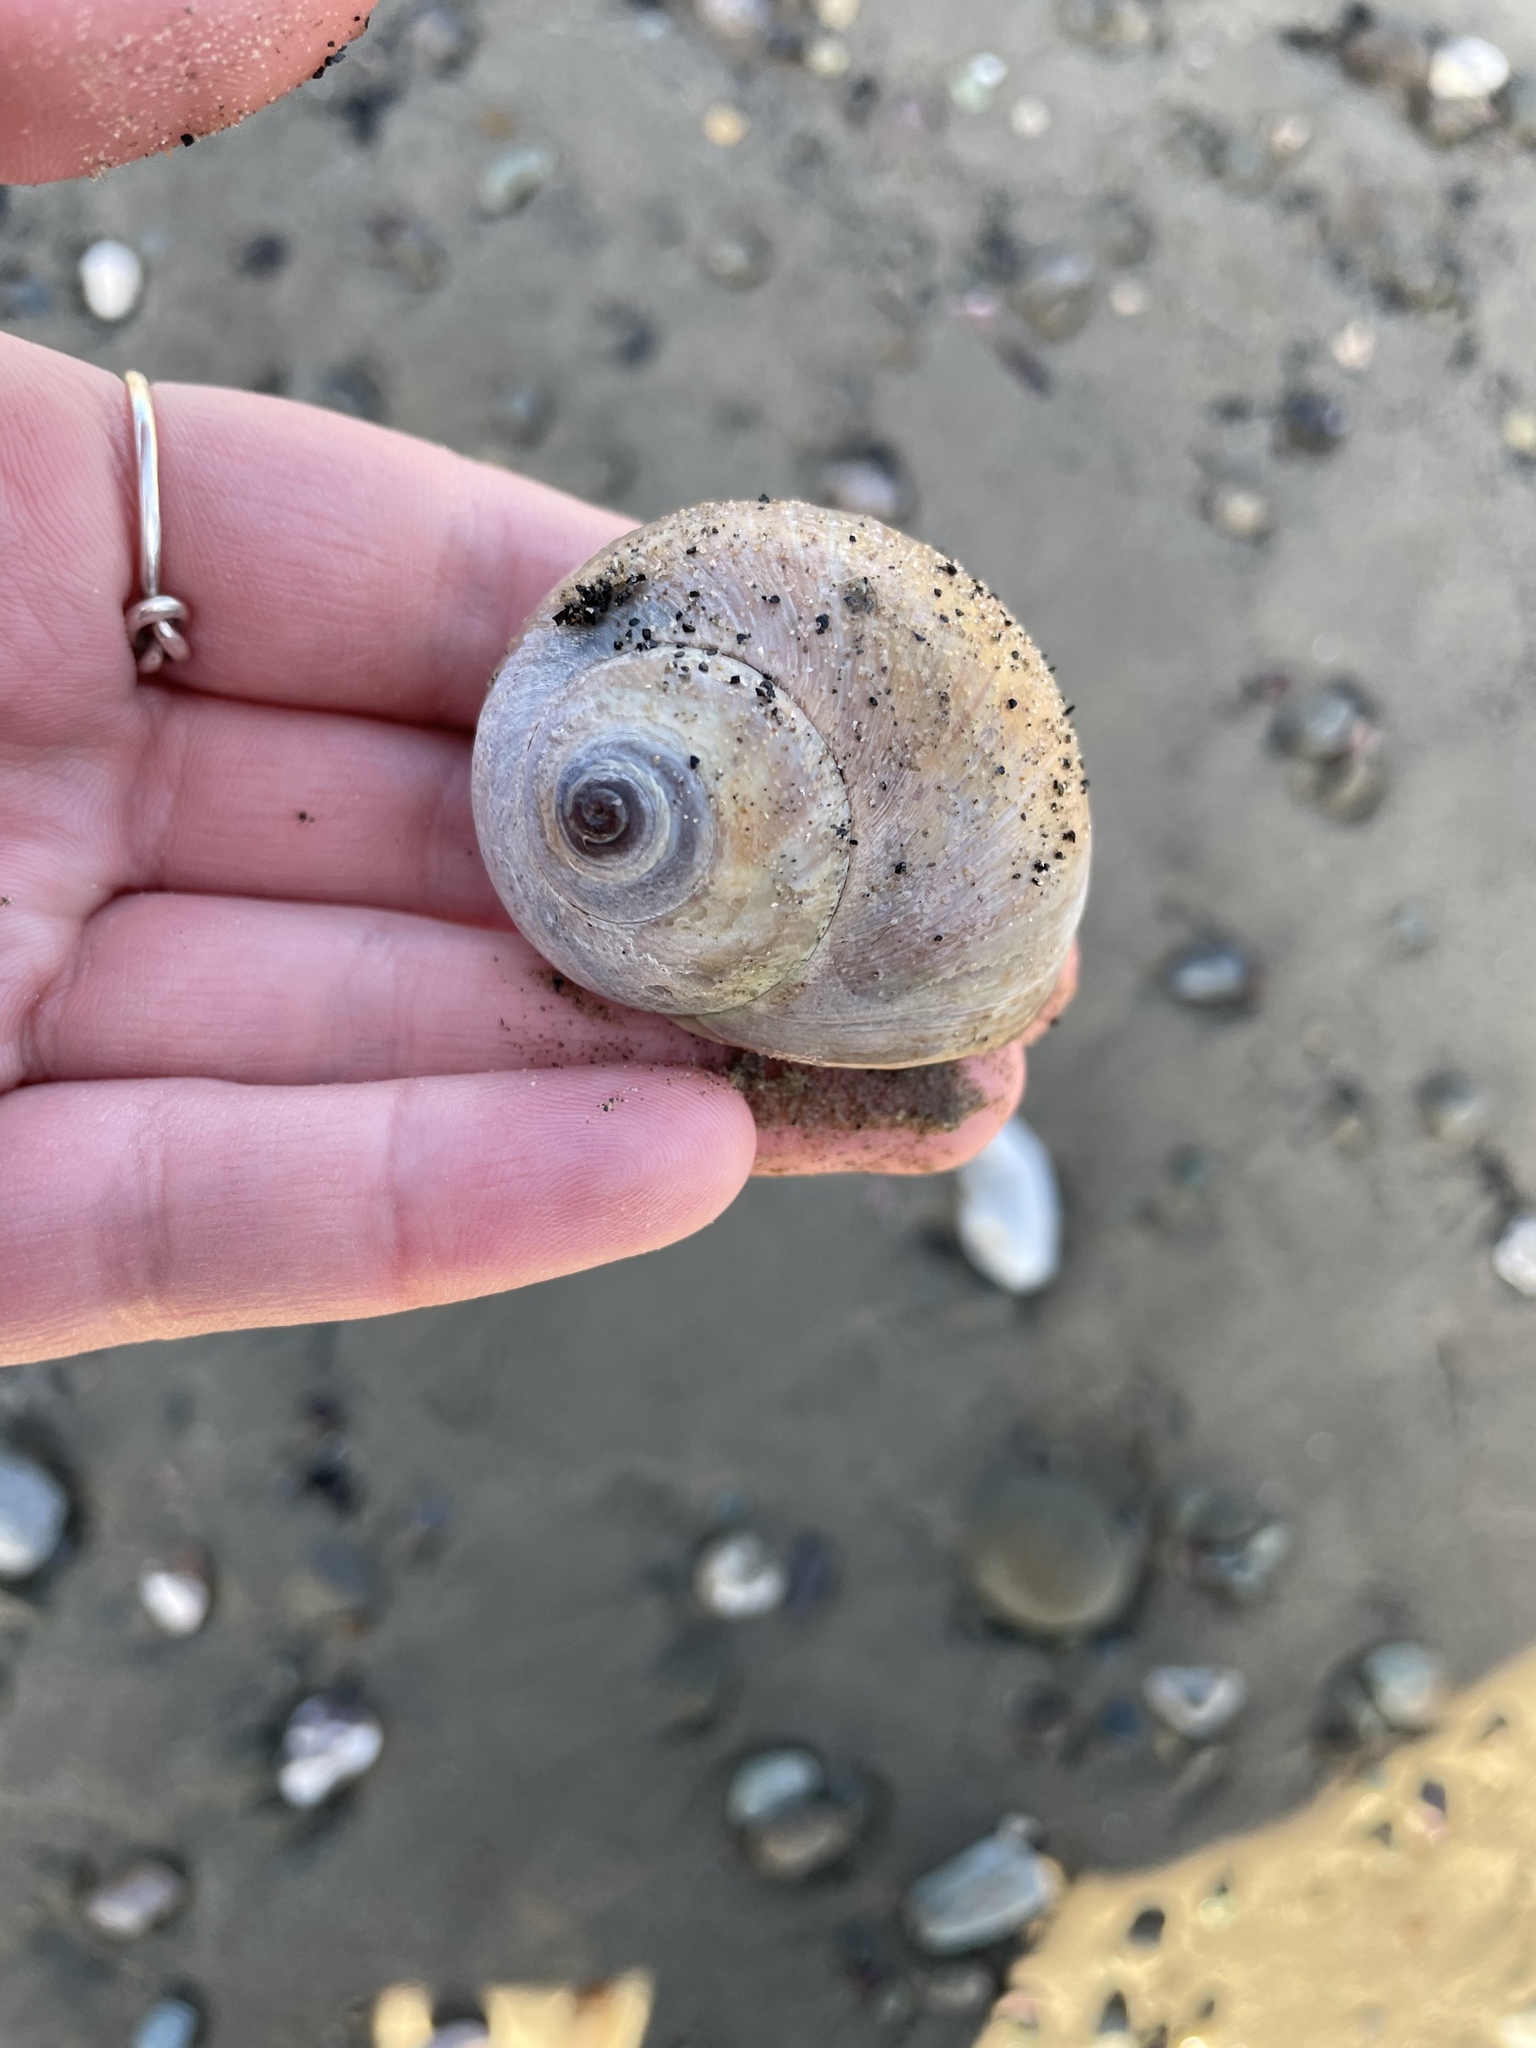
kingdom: Animalia
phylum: Mollusca
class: Gastropoda
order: Littorinimorpha
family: Naticidae
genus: Euspira
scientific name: Euspira heros
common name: Common northern moonsnail
